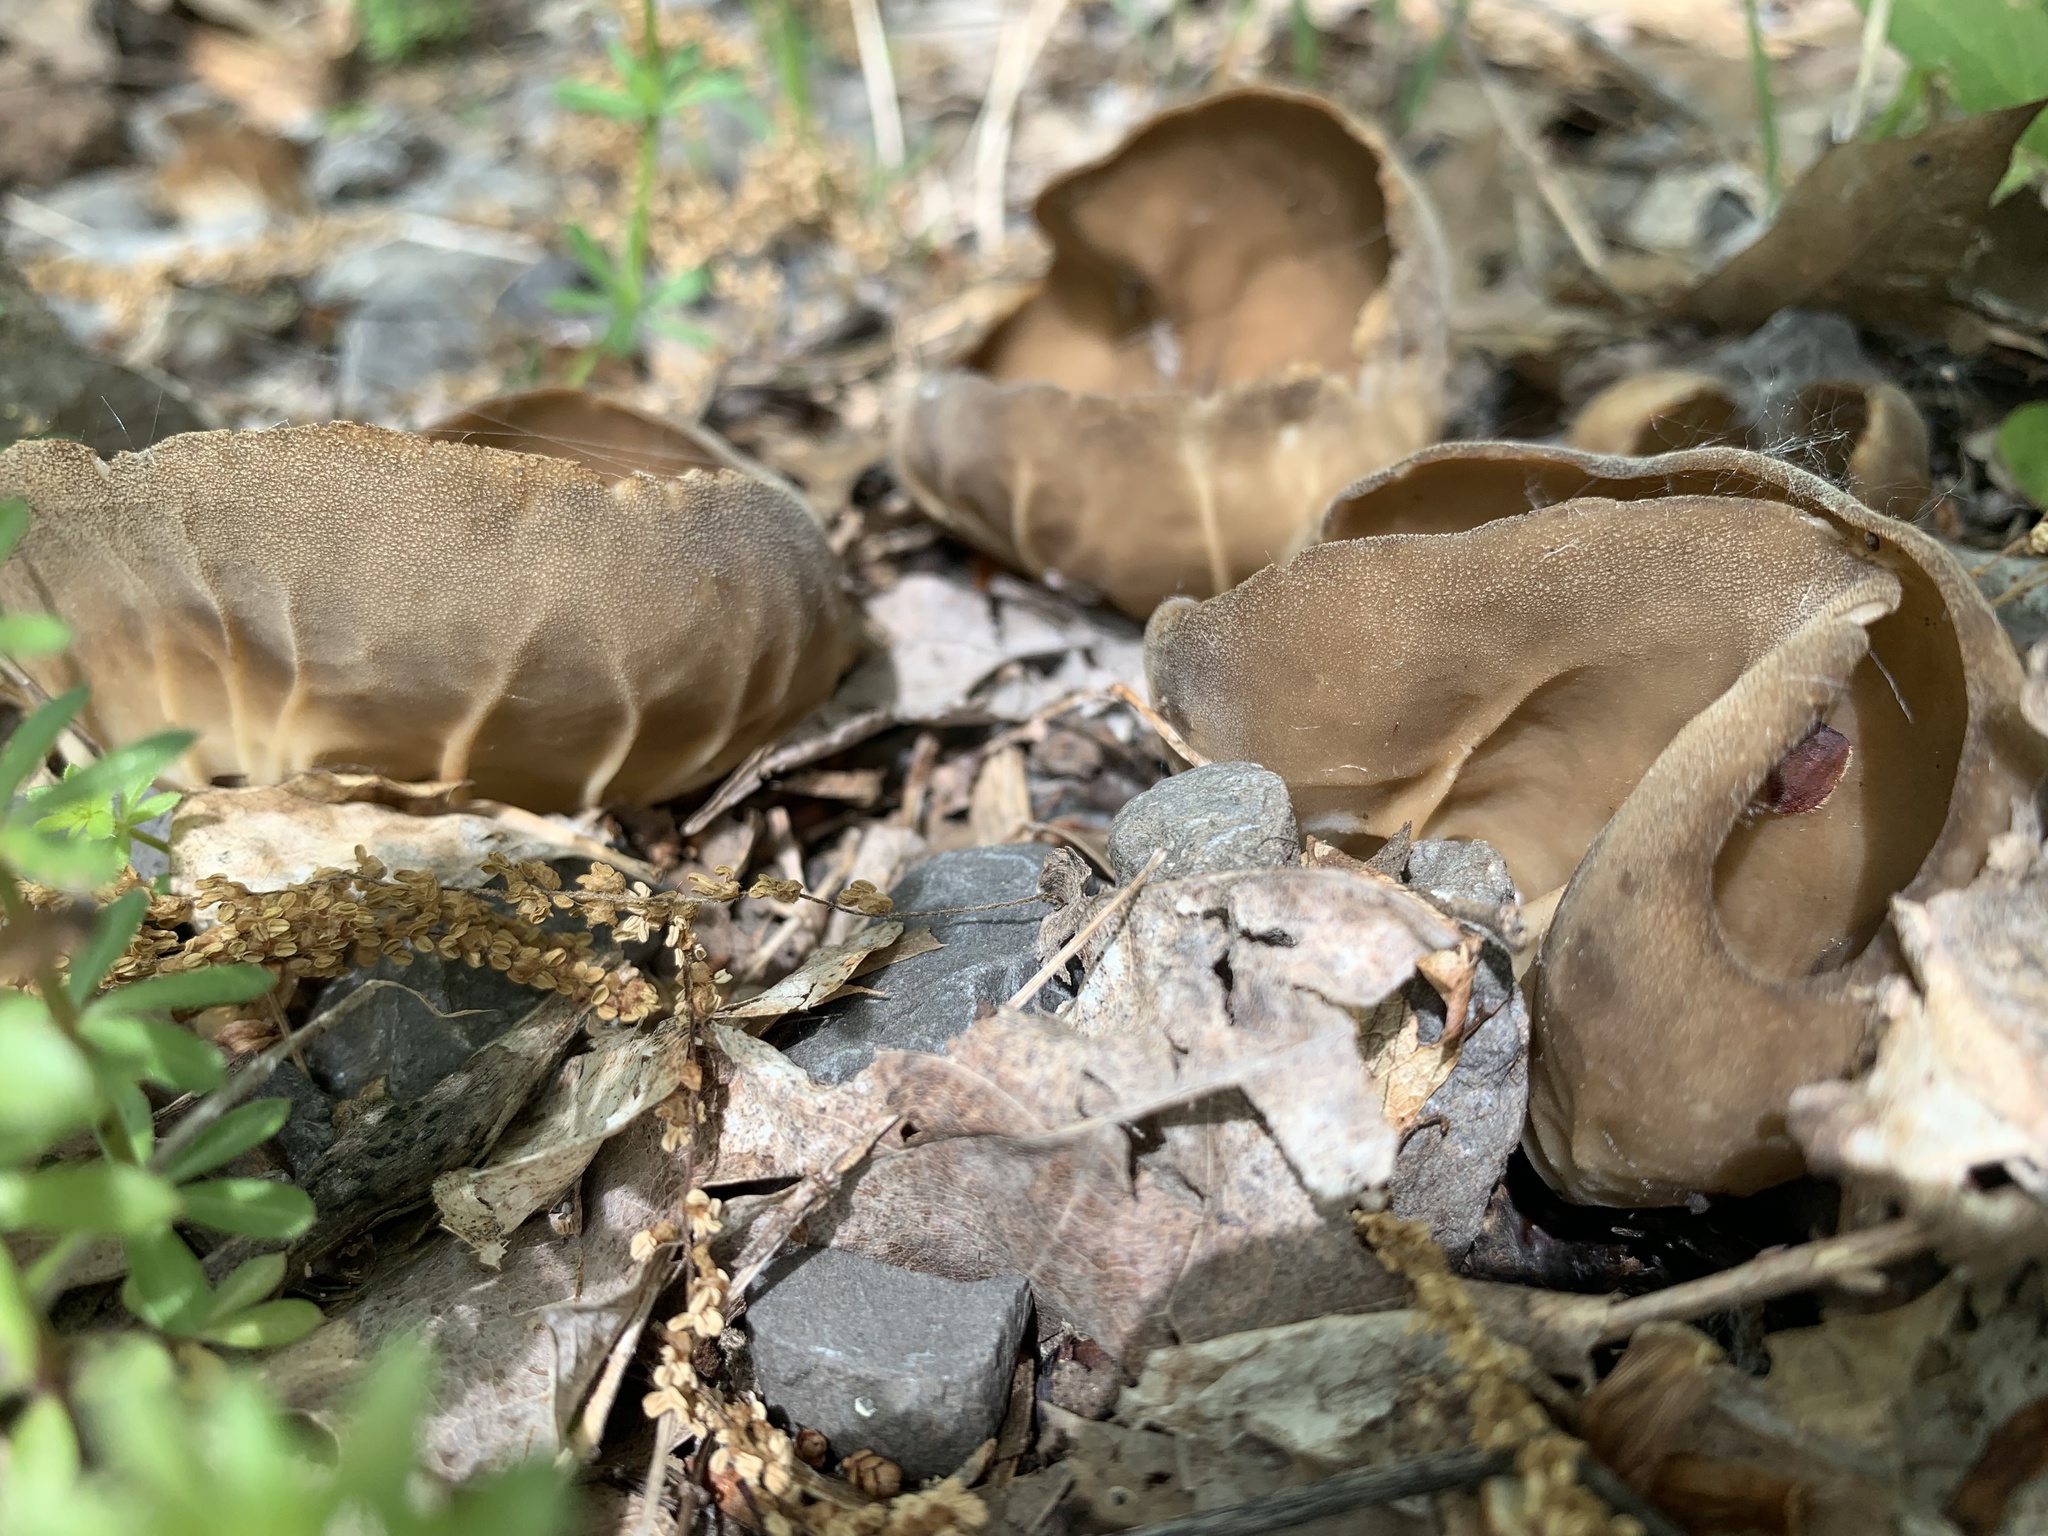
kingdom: Fungi
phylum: Ascomycota
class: Pezizomycetes
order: Pezizales
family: Helvellaceae
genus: Helvella
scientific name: Helvella acetabulum
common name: Vinegar cup
